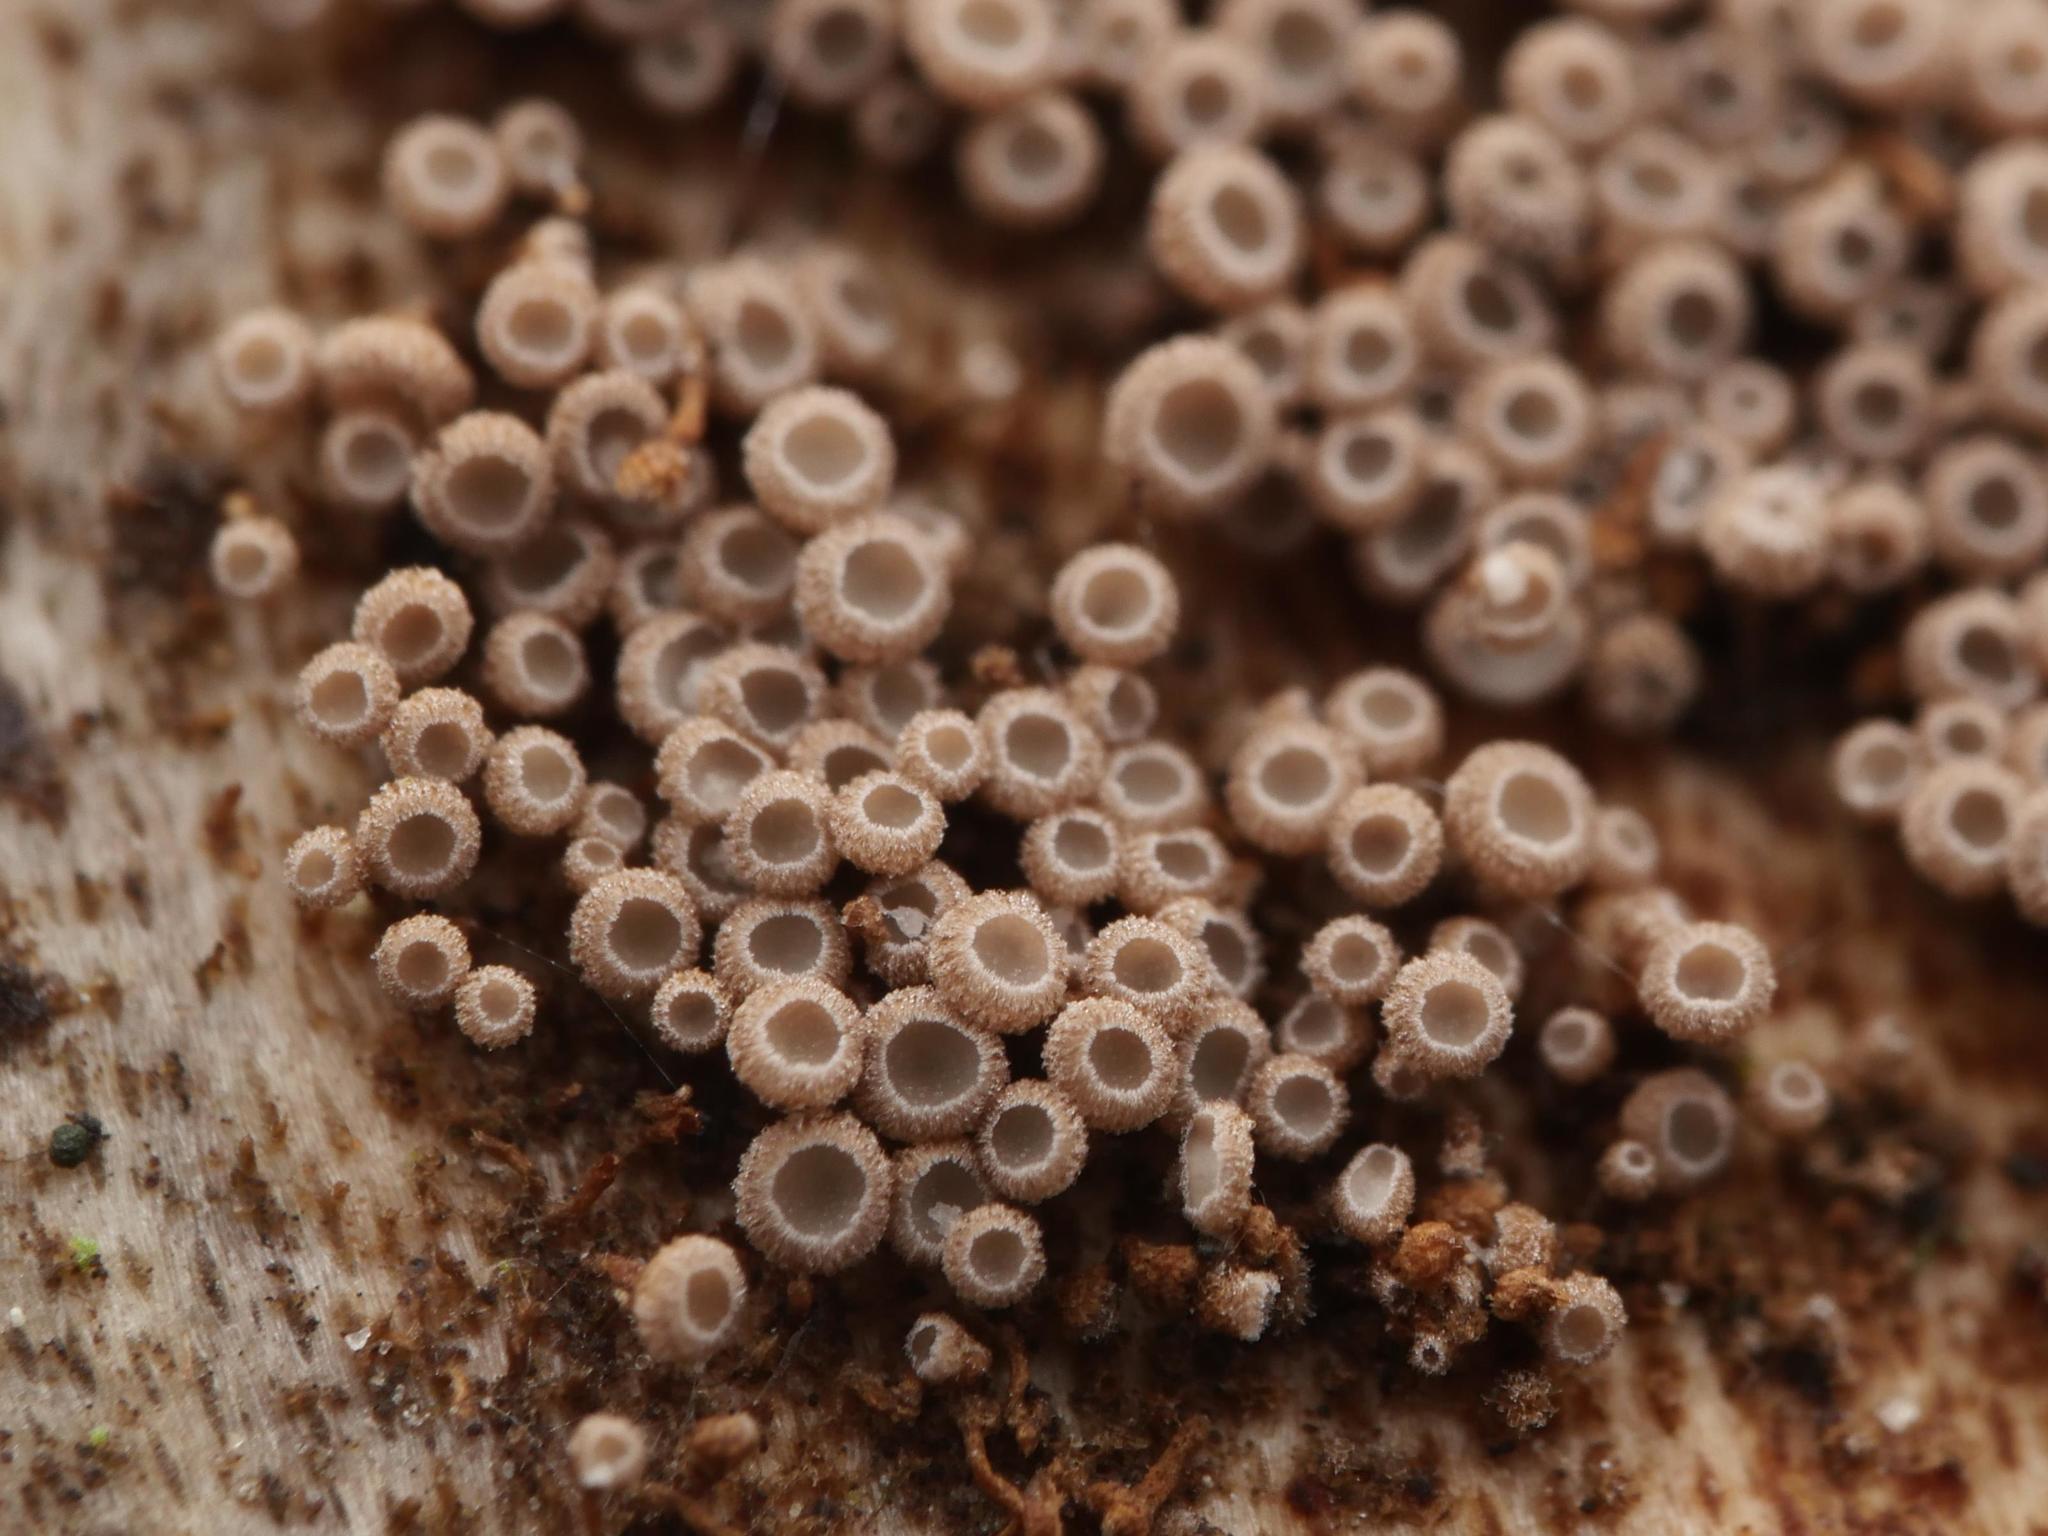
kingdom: Fungi
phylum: Basidiomycota
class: Agaricomycetes
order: Agaricales
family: Niaceae
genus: Merismodes
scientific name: Merismodes anomala
